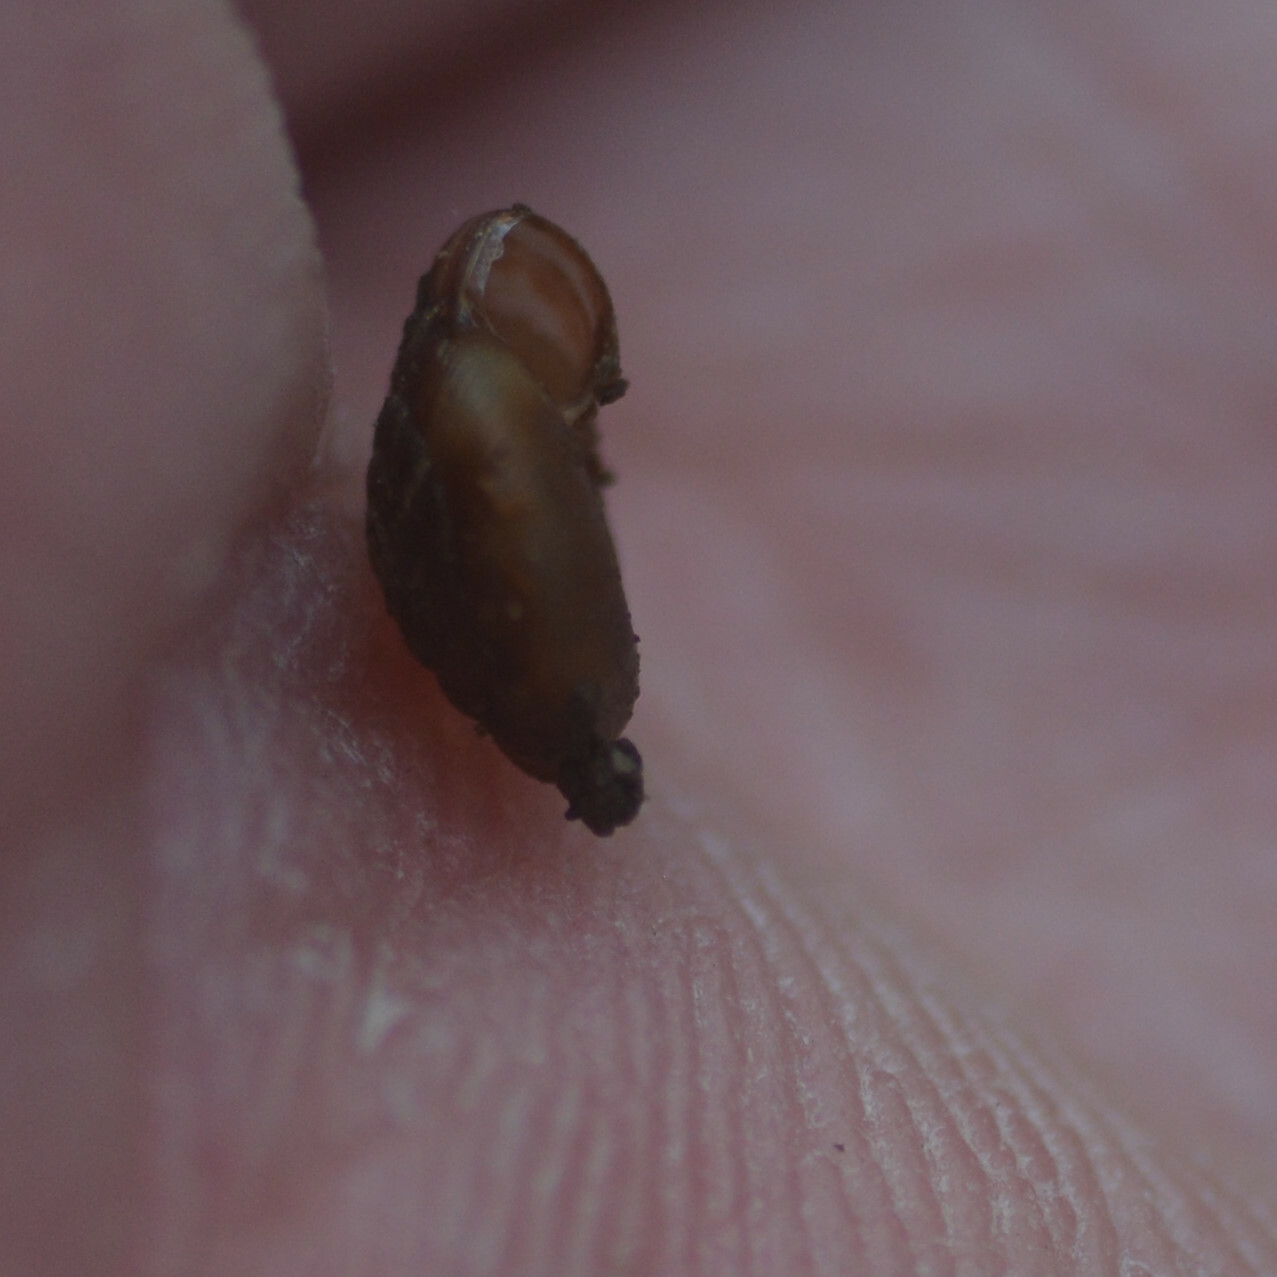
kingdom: Animalia
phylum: Mollusca
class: Gastropoda
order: Stylommatophora
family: Discidae
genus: Discus
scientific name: Discus rotundatus
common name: Rounded snail
